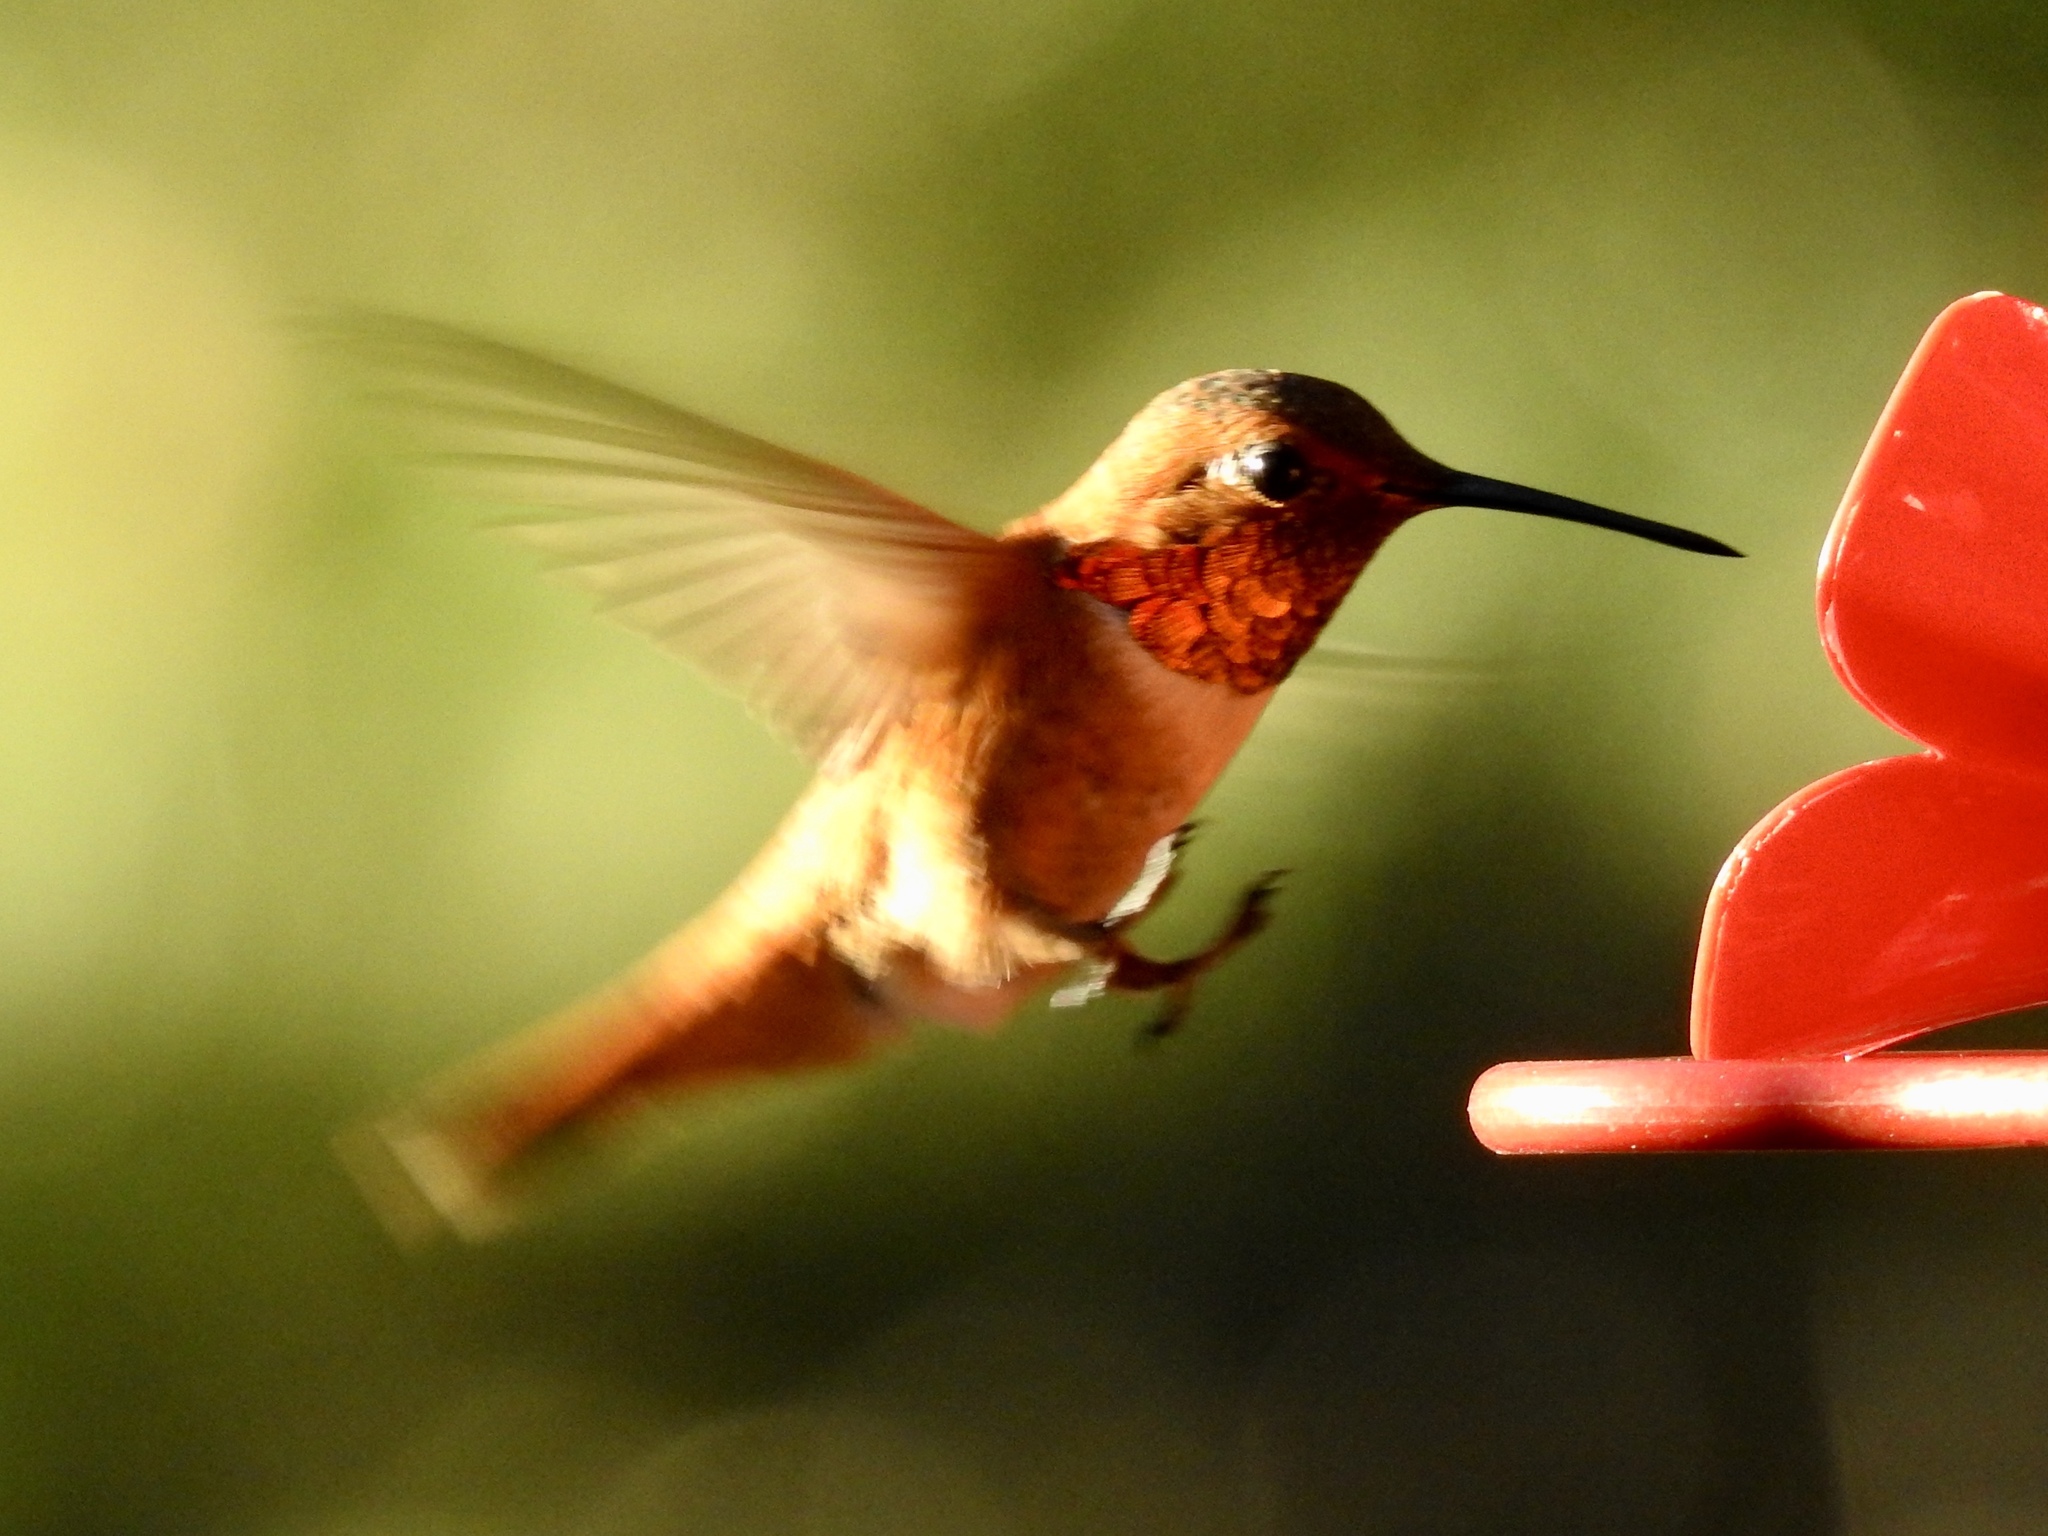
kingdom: Animalia
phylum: Chordata
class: Aves
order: Apodiformes
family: Trochilidae
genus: Selasphorus
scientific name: Selasphorus rufus
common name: Rufous hummingbird
